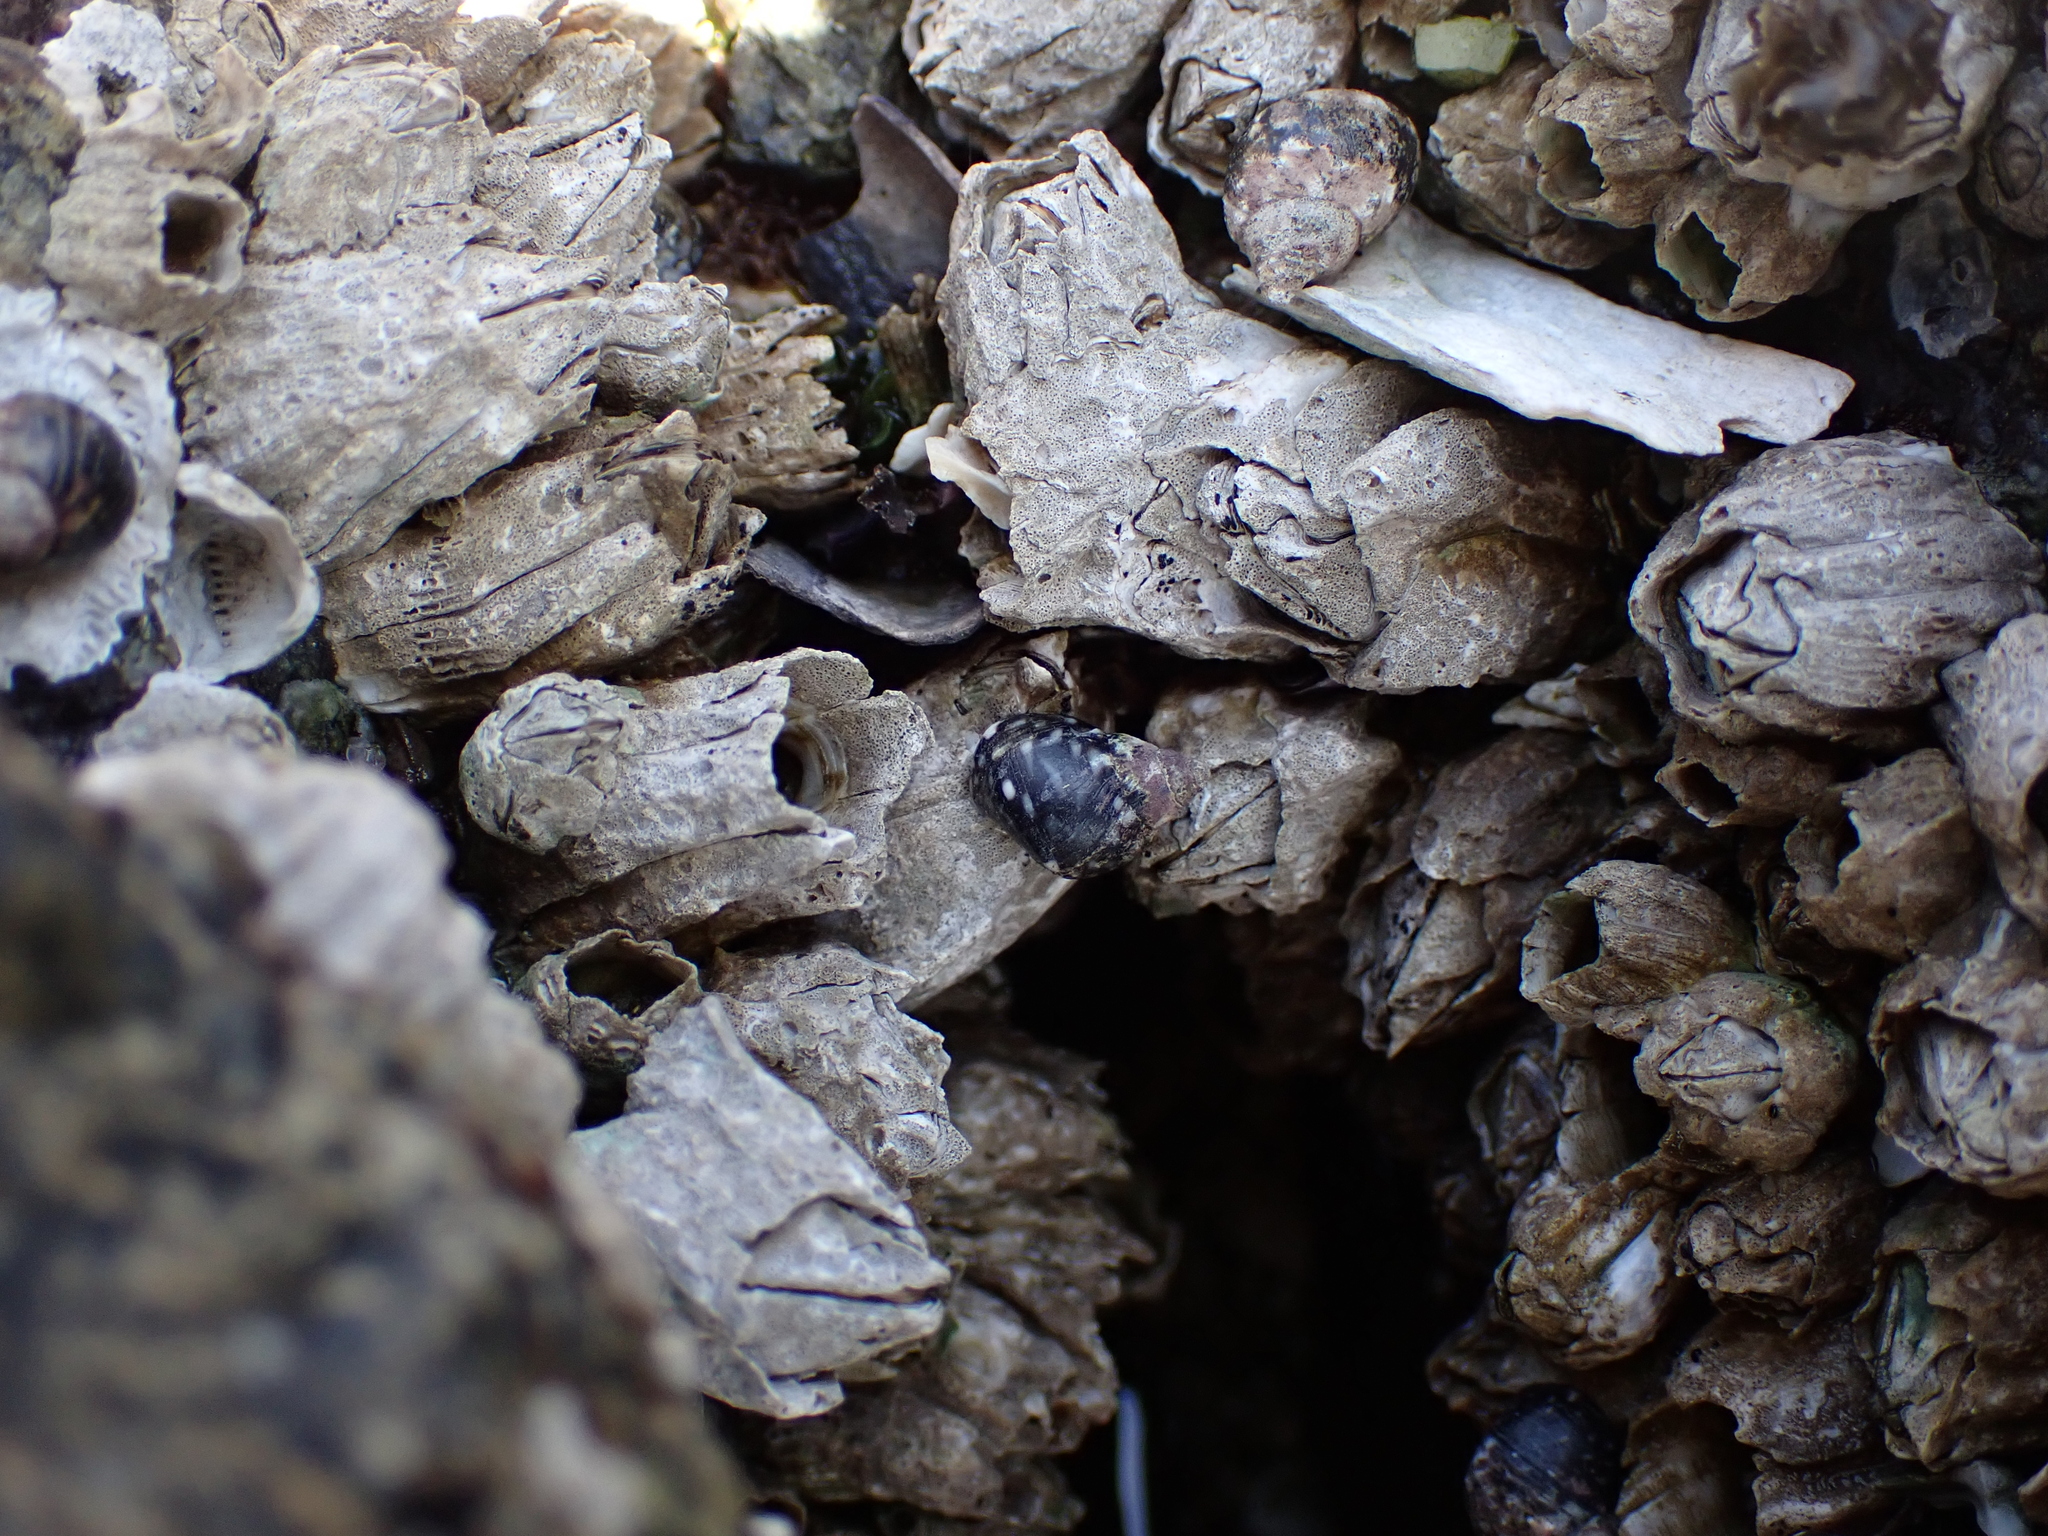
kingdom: Animalia
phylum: Mollusca
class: Gastropoda
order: Littorinimorpha
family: Littorinidae
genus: Littorina
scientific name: Littorina scutulata
